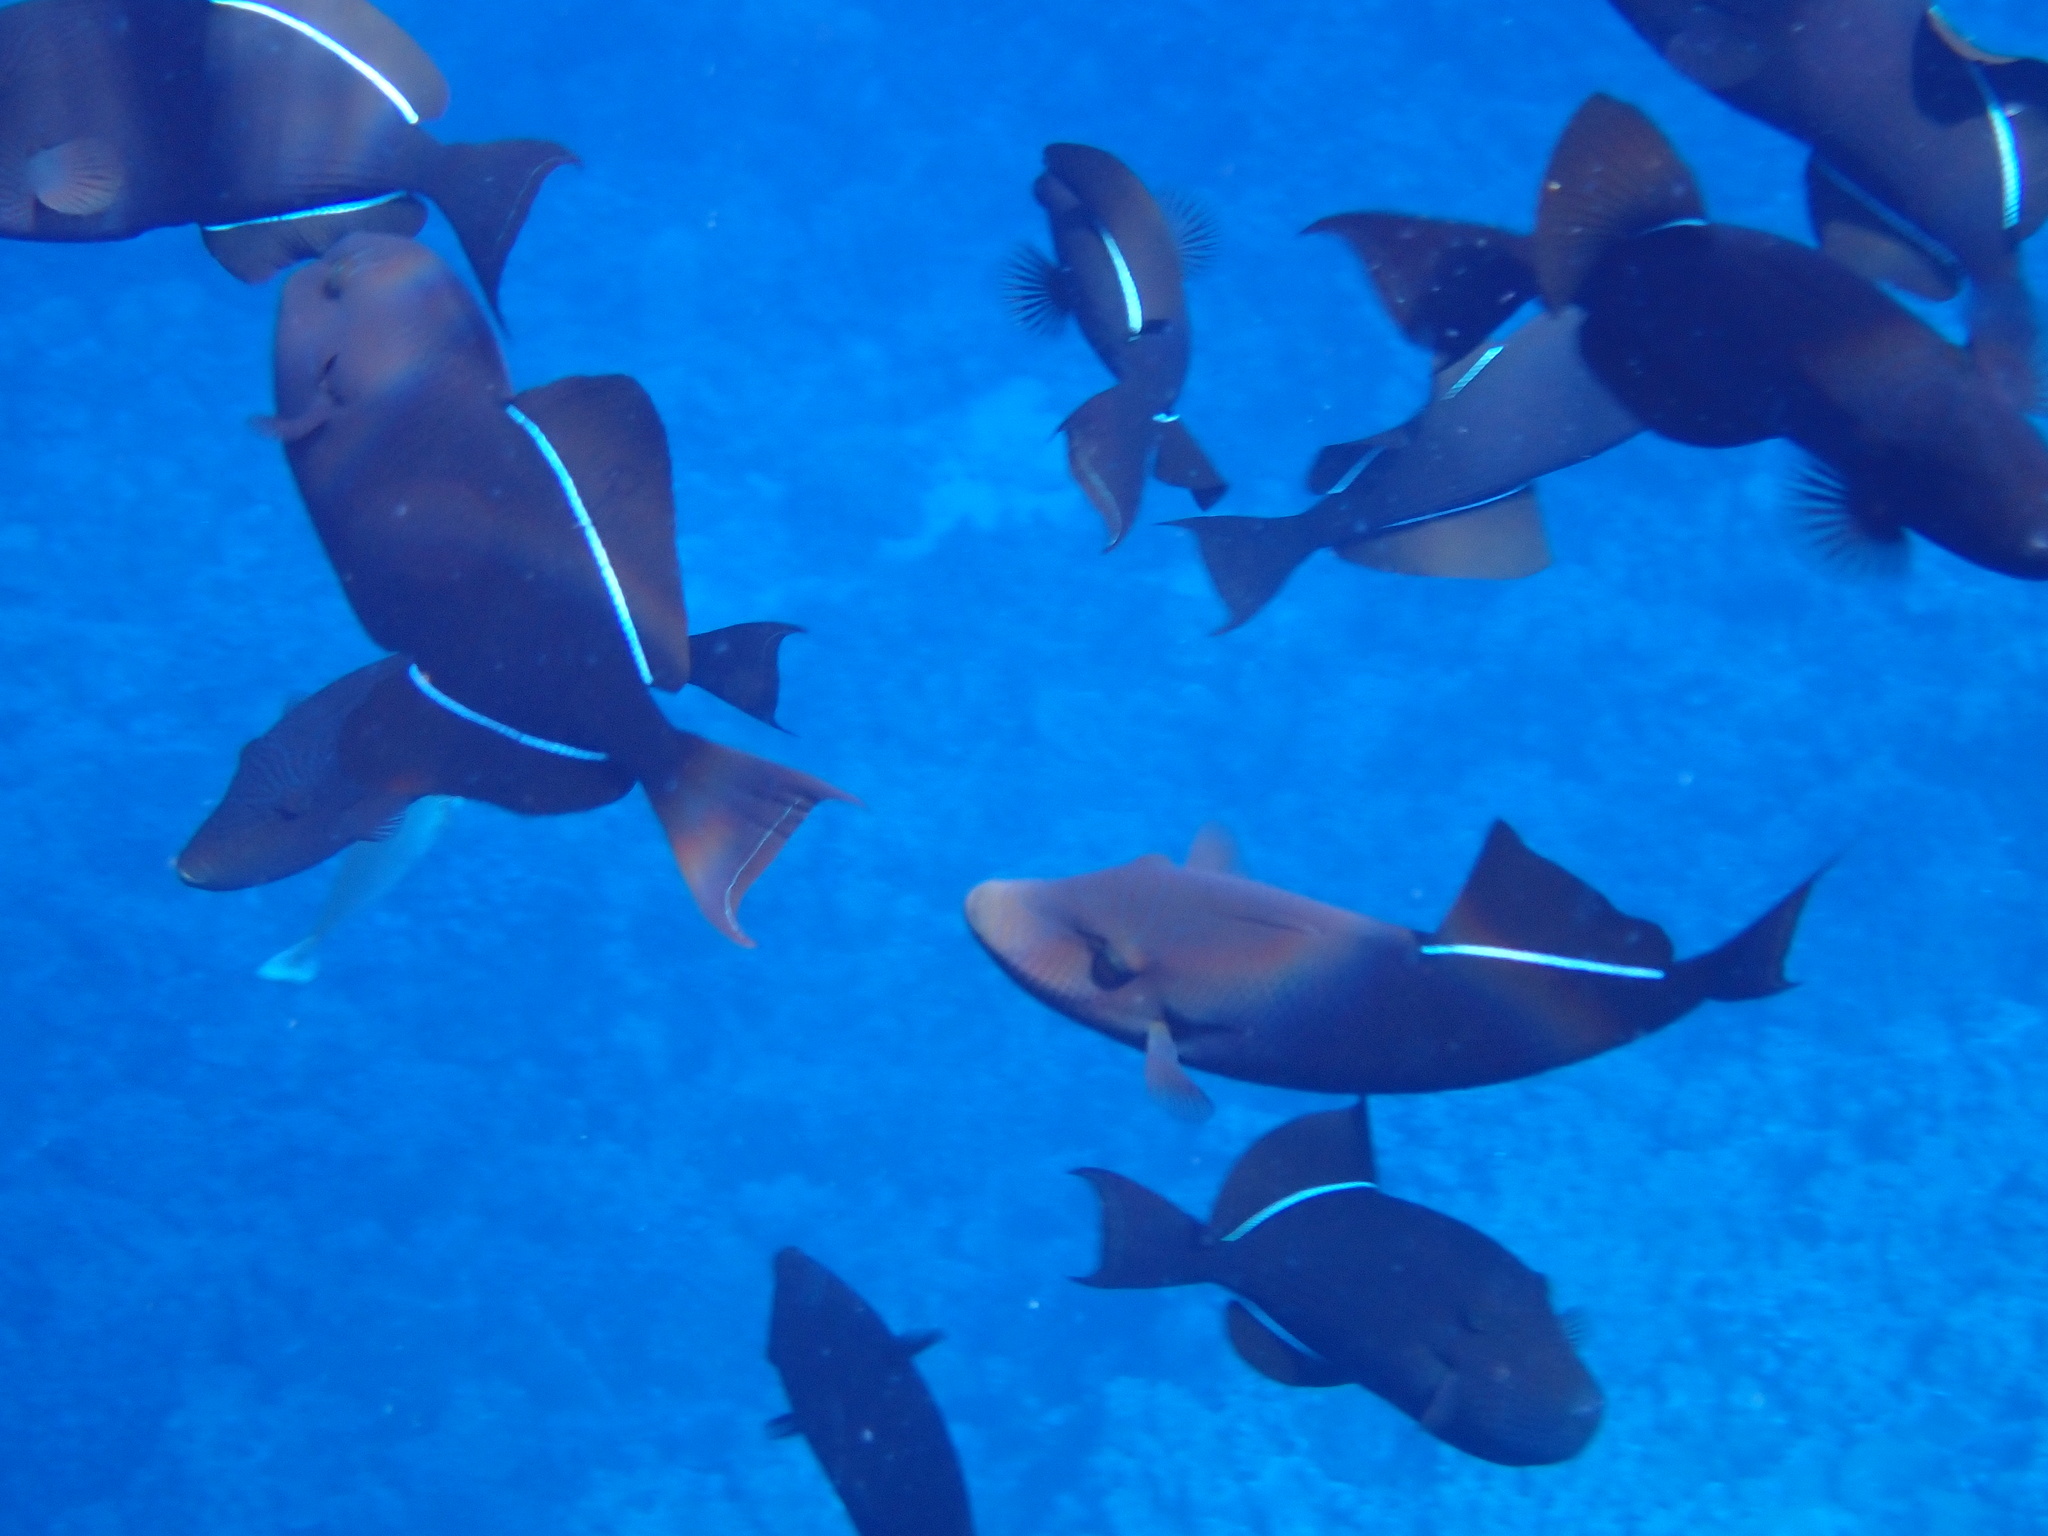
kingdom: Animalia
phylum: Chordata
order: Tetraodontiformes
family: Balistidae
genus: Melichthys
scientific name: Melichthys niger
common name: Black durgon
